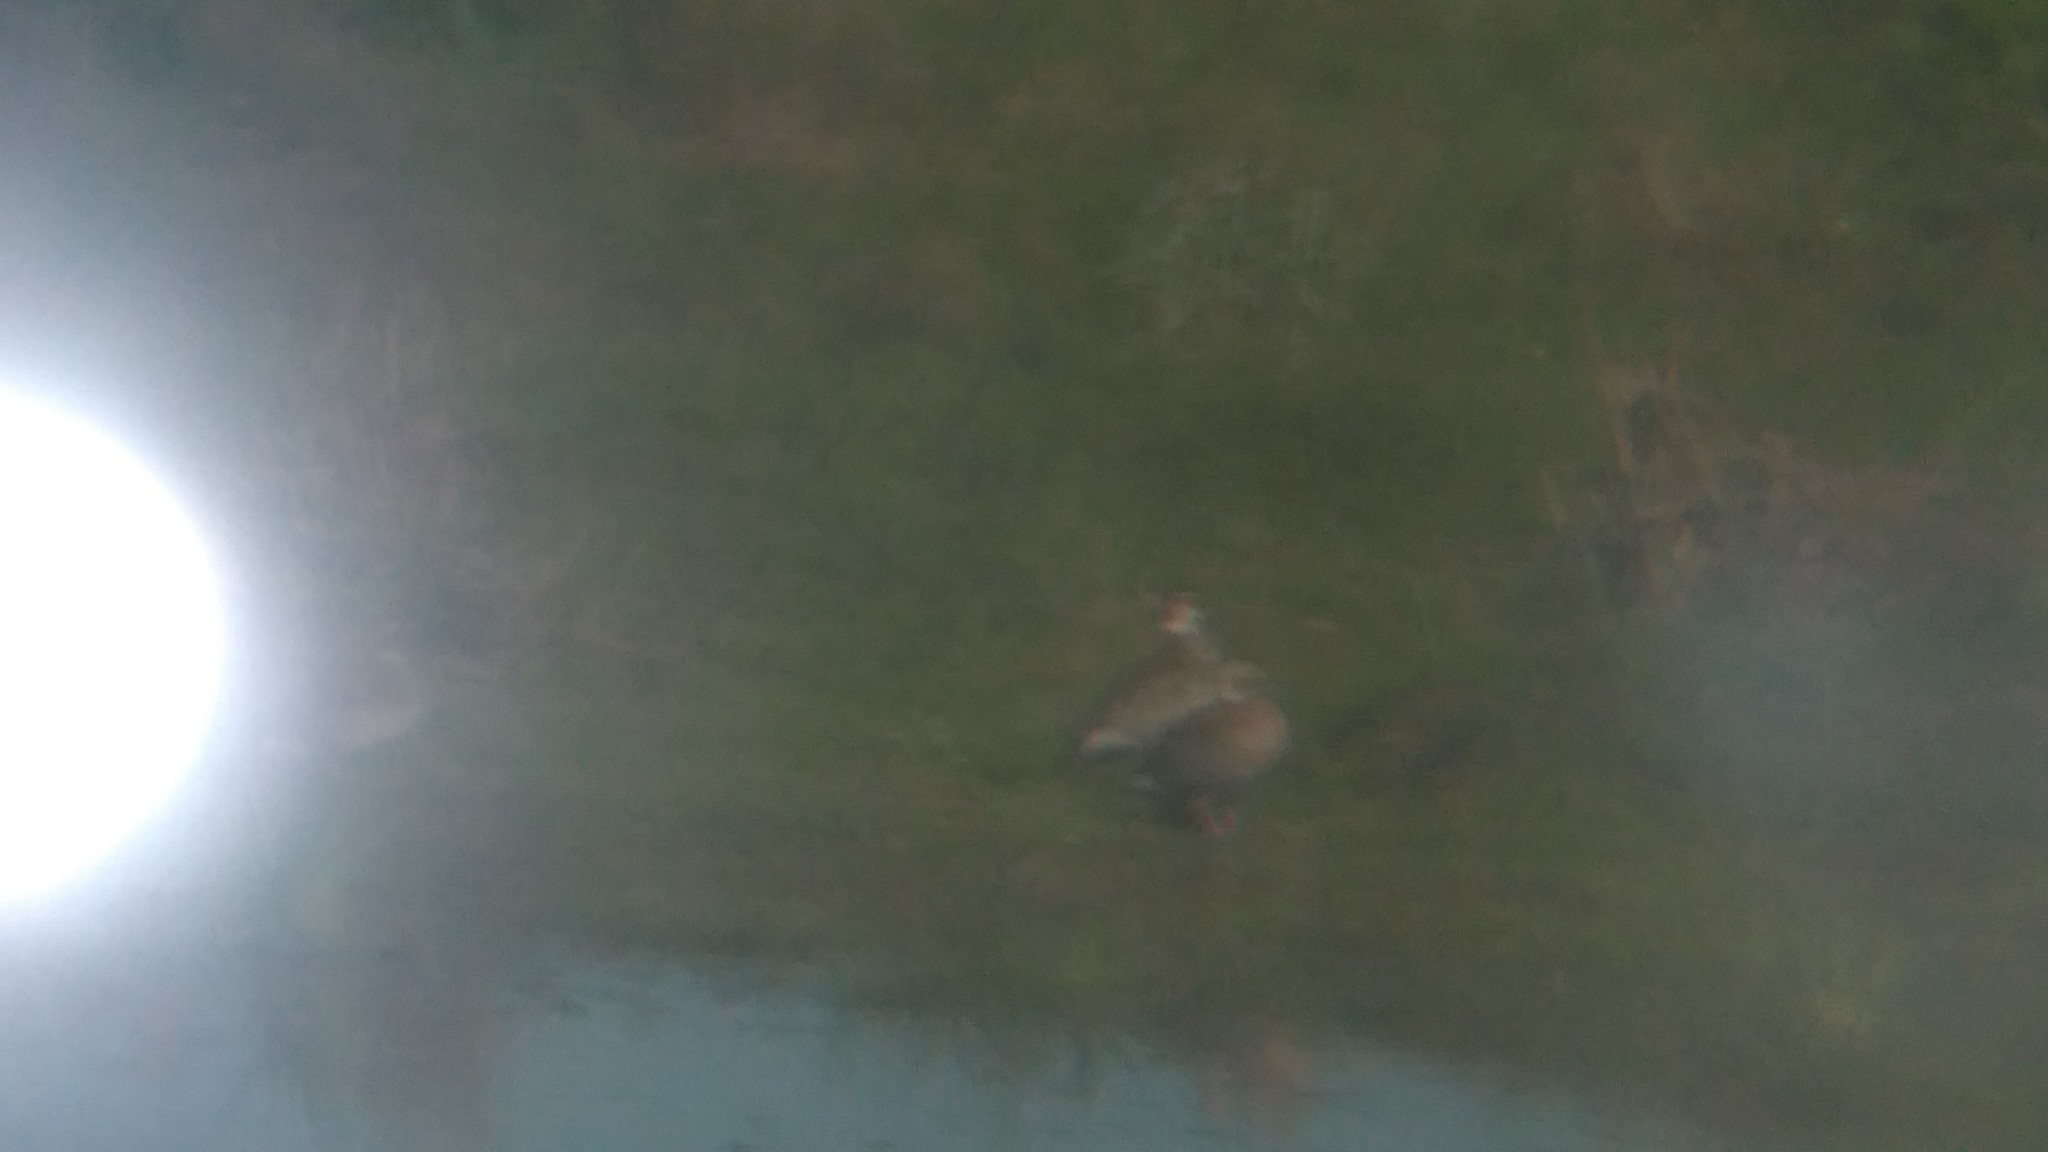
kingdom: Animalia
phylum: Chordata
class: Aves
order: Anseriformes
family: Anatidae
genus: Callonetta
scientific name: Callonetta leucophrys
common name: Ringed teal
